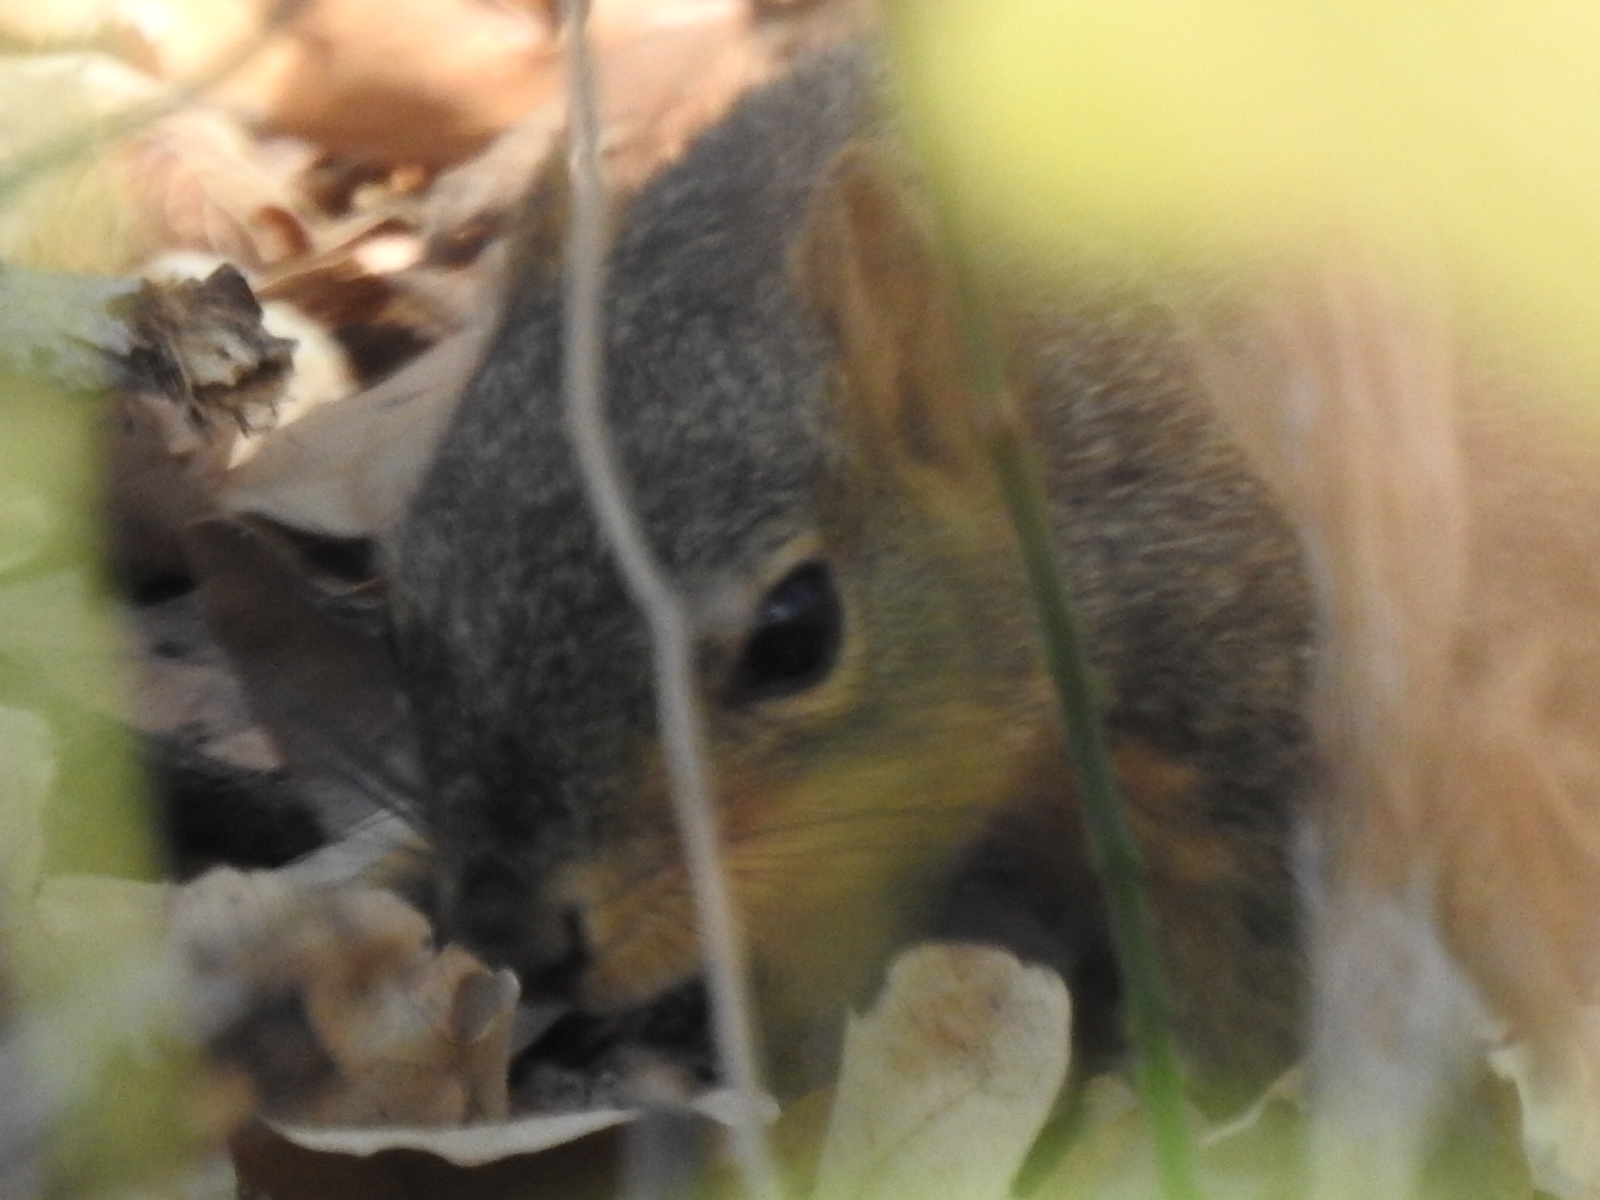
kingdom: Animalia
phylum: Chordata
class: Mammalia
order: Rodentia
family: Sciuridae
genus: Sciurus
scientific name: Sciurus niger
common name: Fox squirrel
